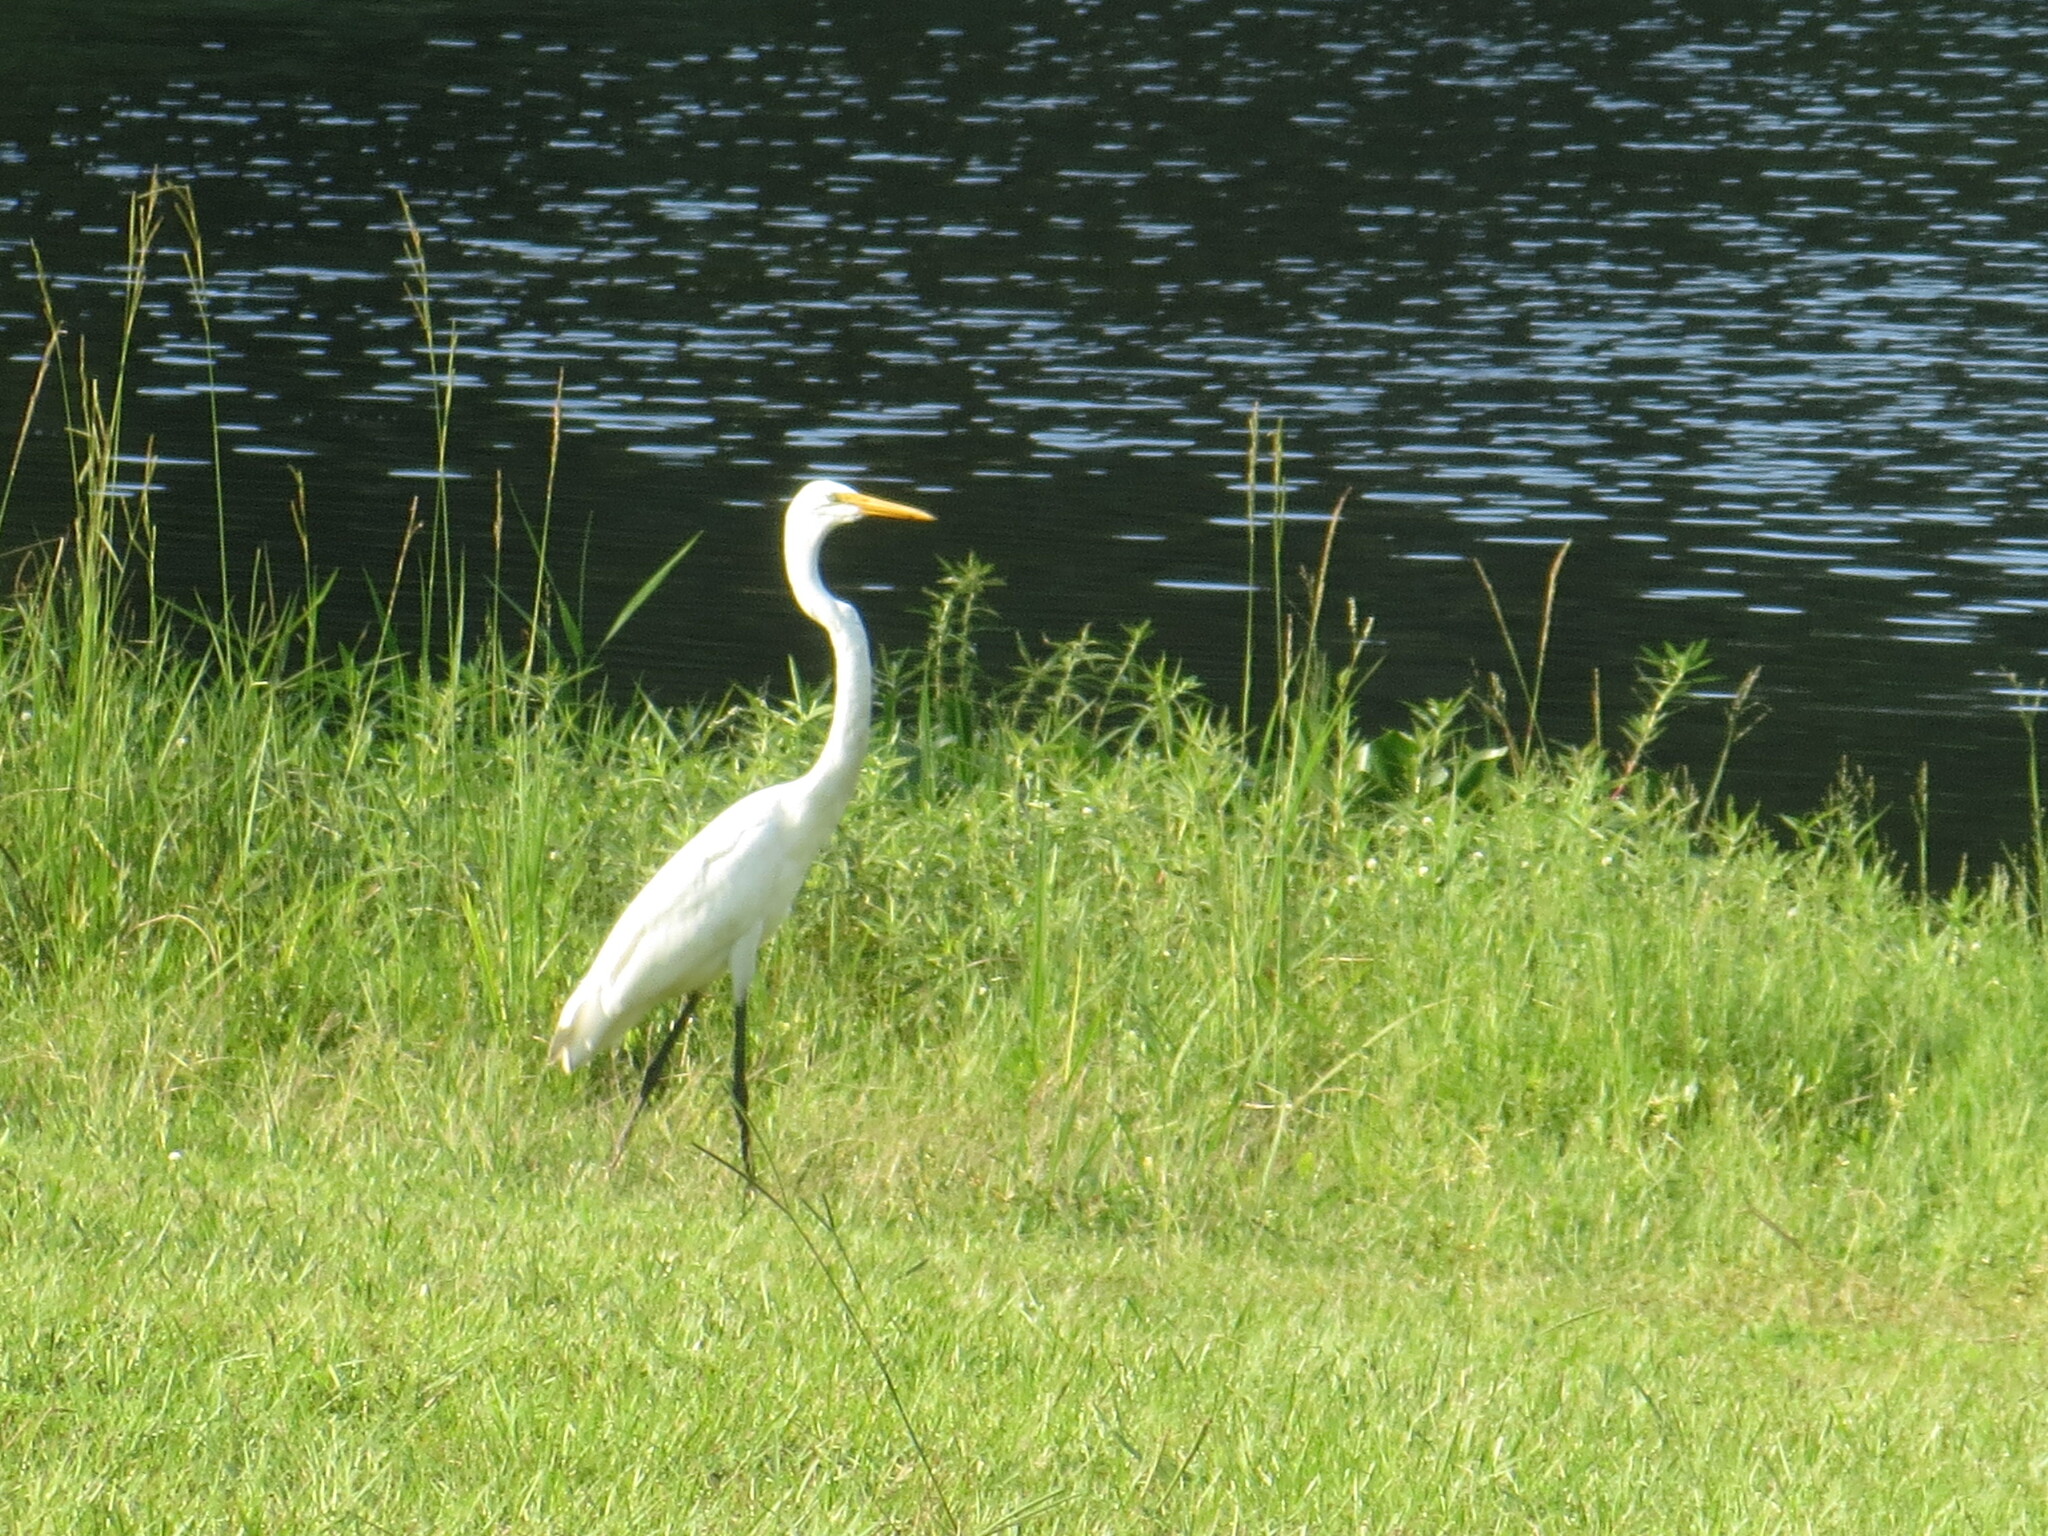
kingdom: Animalia
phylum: Chordata
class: Aves
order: Pelecaniformes
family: Ardeidae
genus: Ardea
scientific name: Ardea alba
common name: Great egret
